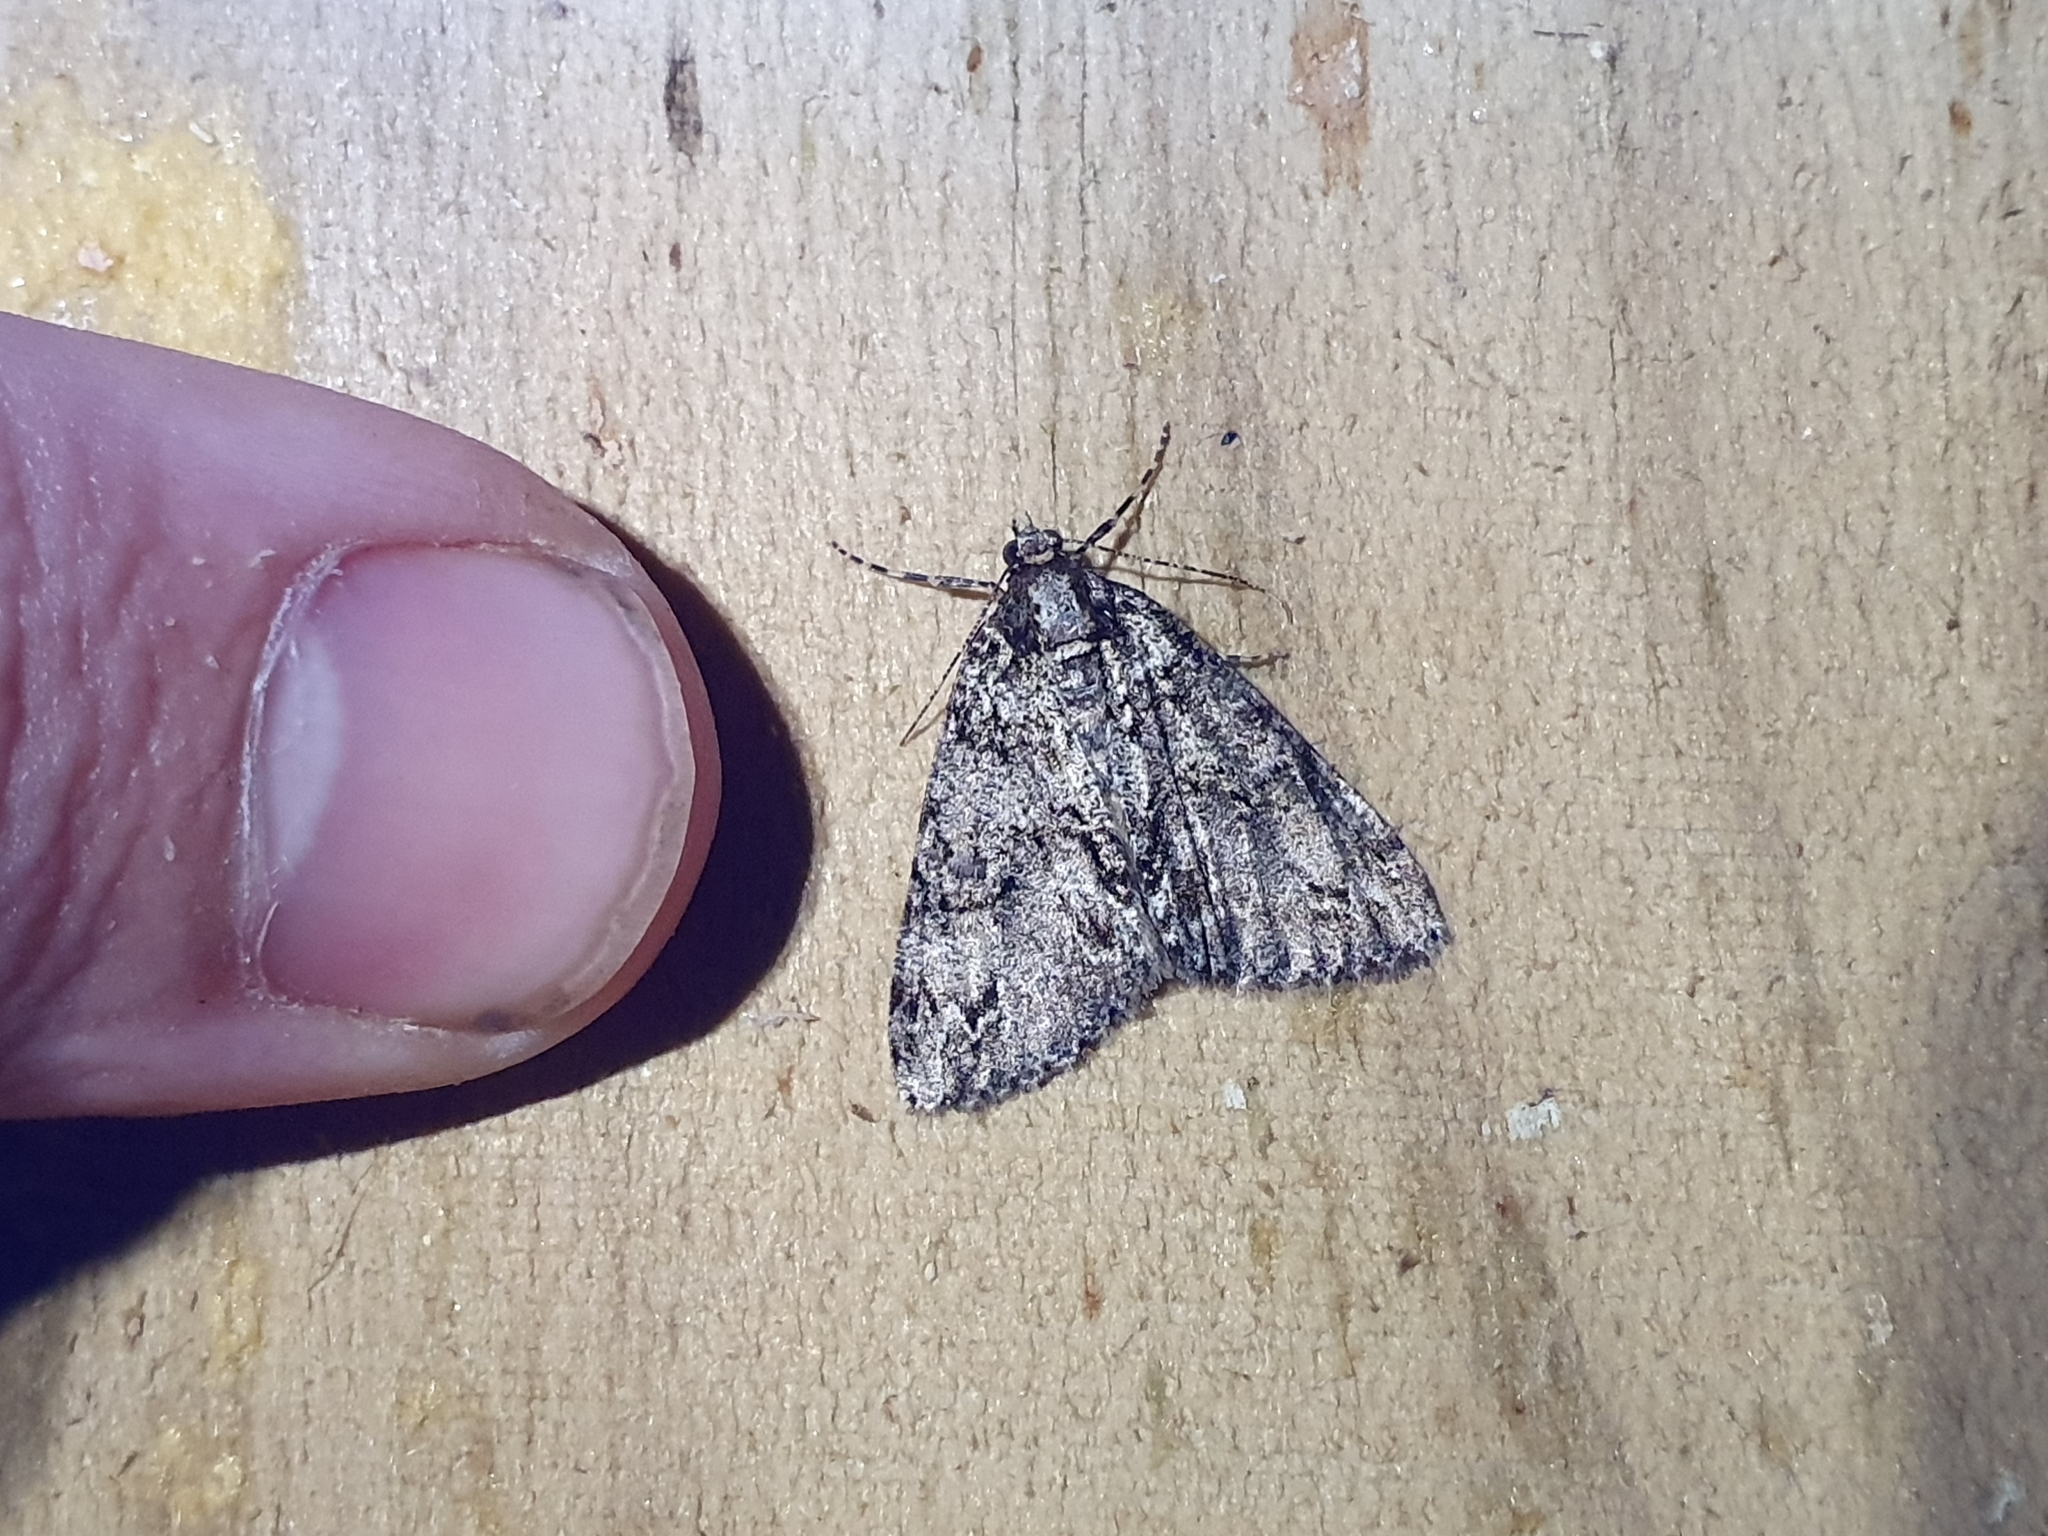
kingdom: Animalia
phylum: Arthropoda
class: Insecta
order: Lepidoptera
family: Geometridae
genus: Pseudocoremia
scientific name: Pseudocoremia suavis
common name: Common forest looper
